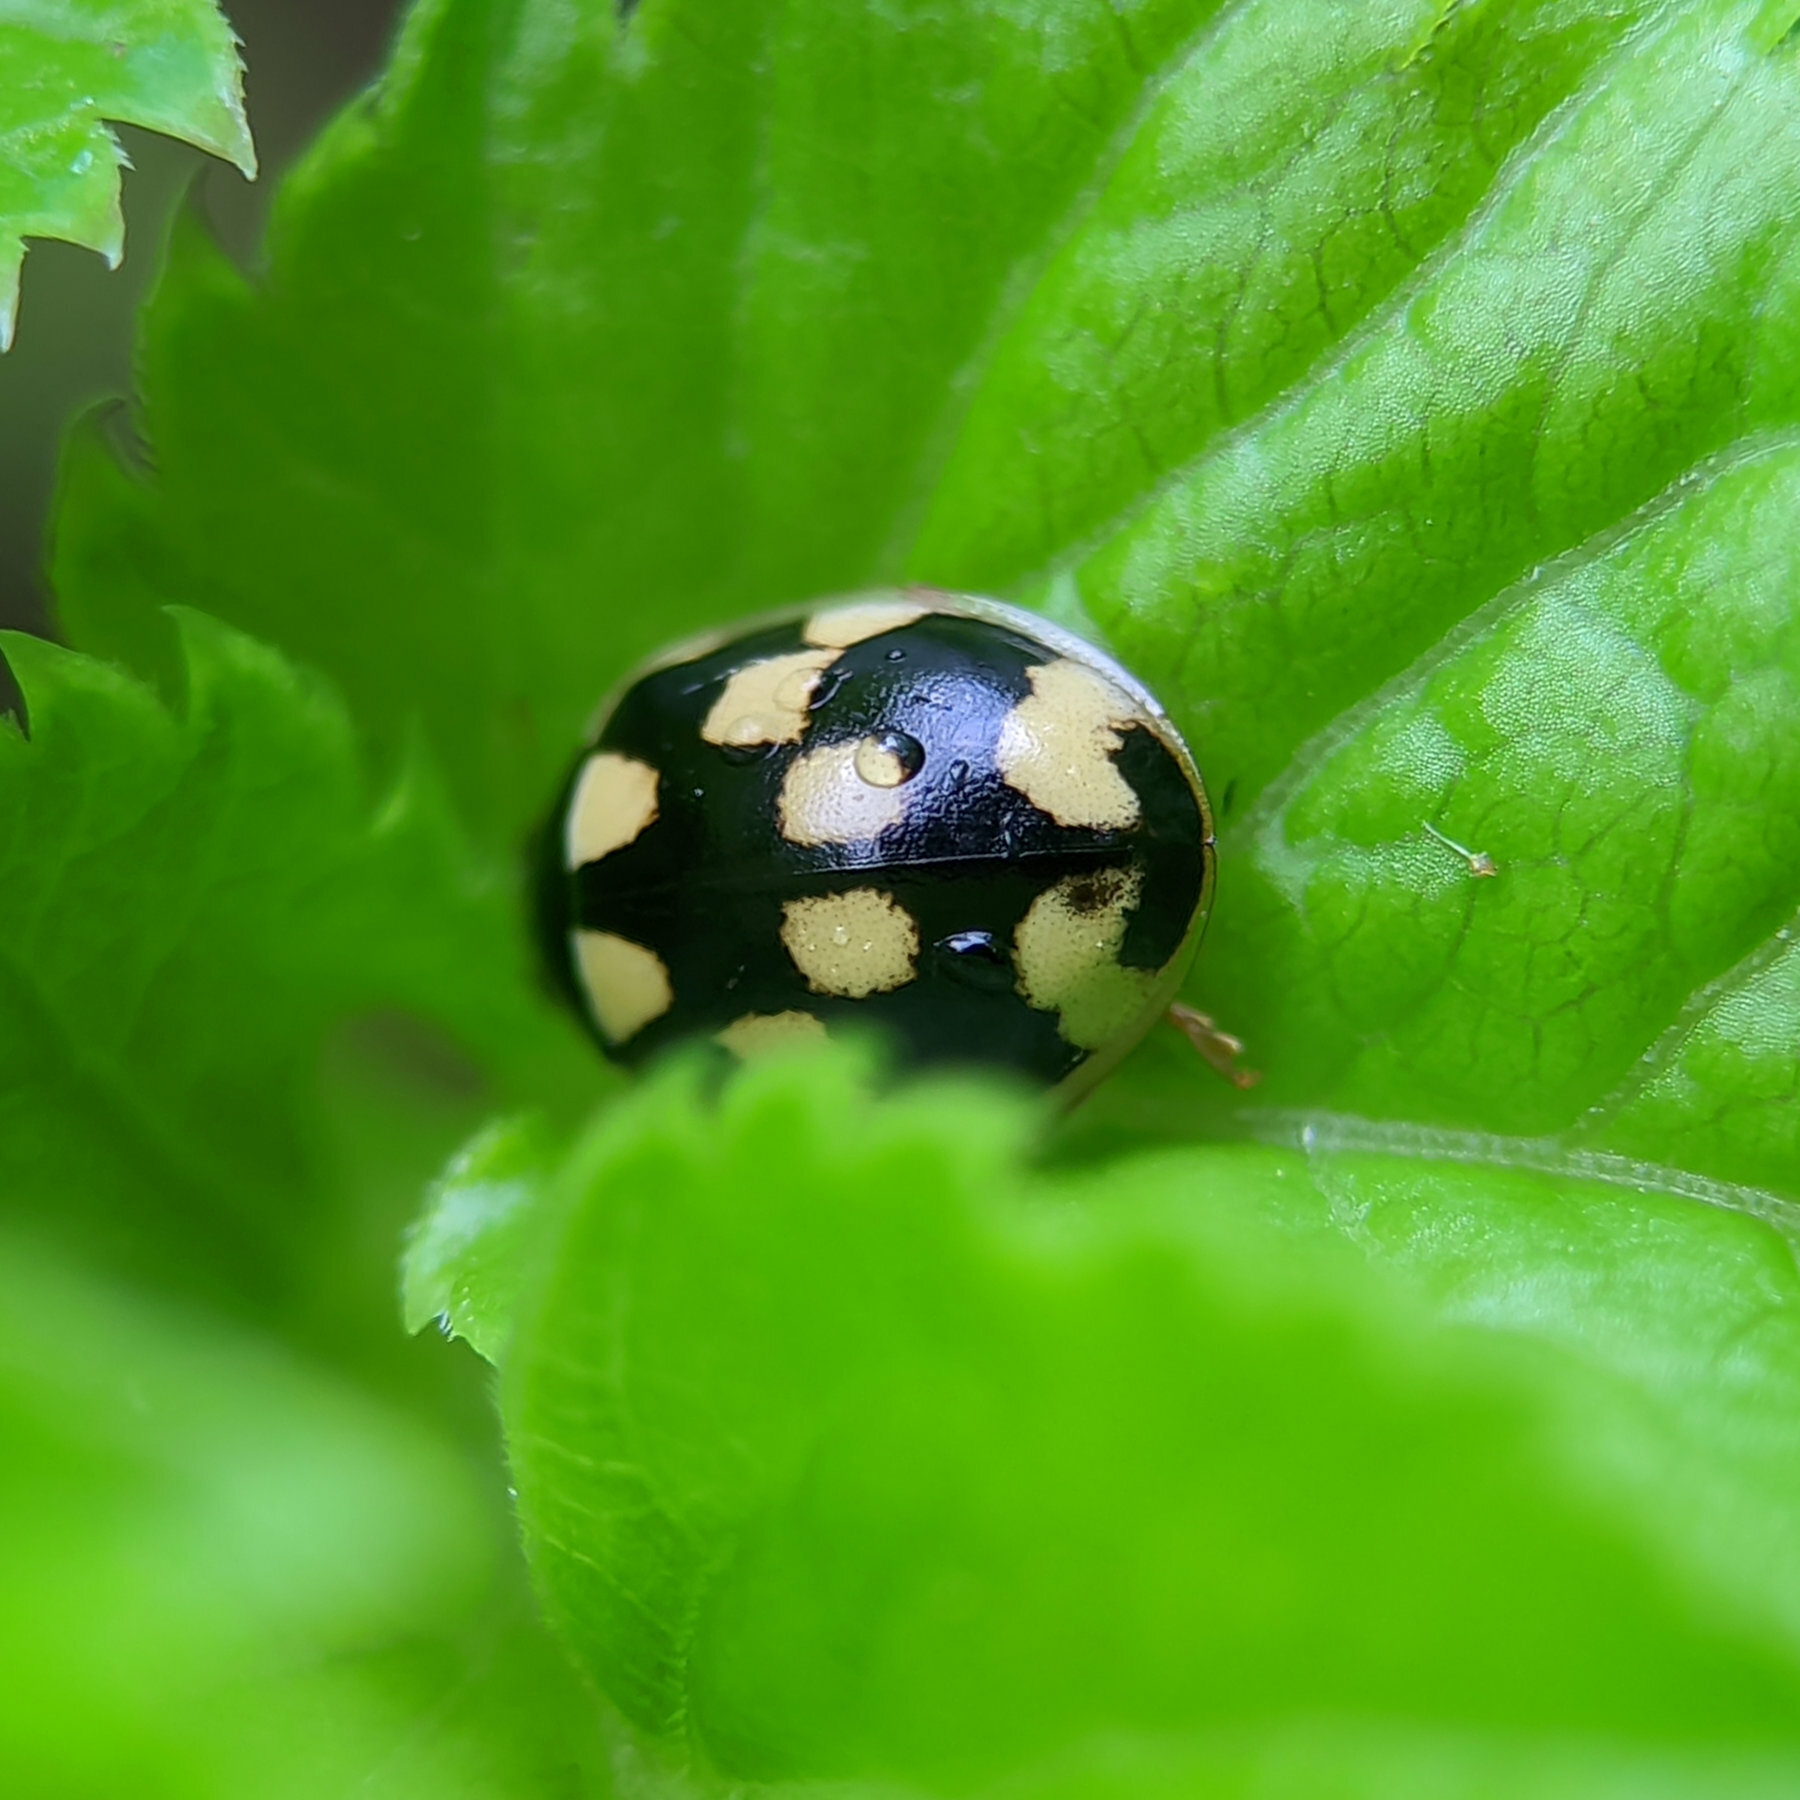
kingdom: Animalia
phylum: Arthropoda
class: Insecta
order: Coleoptera
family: Coccinellidae
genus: Propylaea
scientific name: Propylaea quatuordecimpunctata
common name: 14-spotted ladybird beetle
